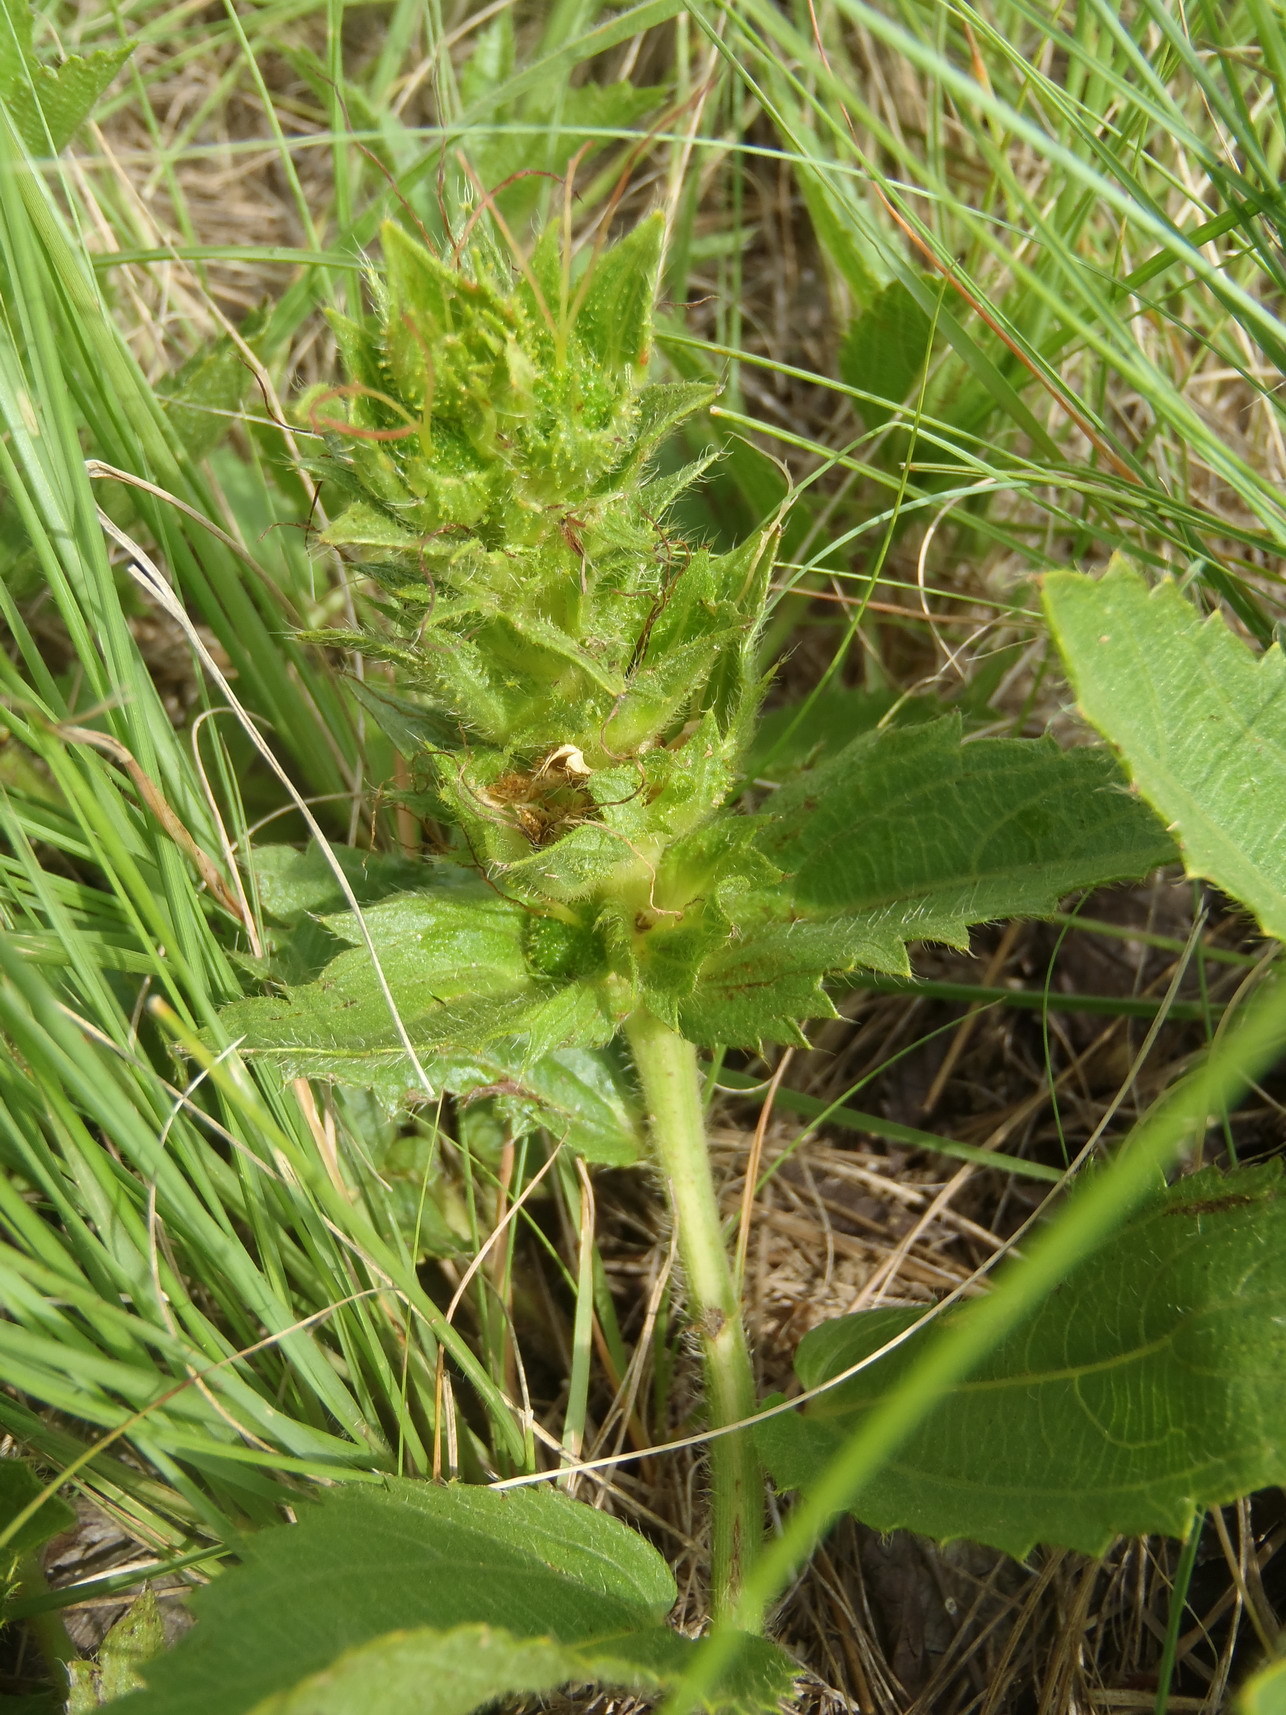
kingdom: Plantae
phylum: Tracheophyta
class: Magnoliopsida
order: Malpighiales
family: Euphorbiaceae
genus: Acalypha
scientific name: Acalypha angustata
